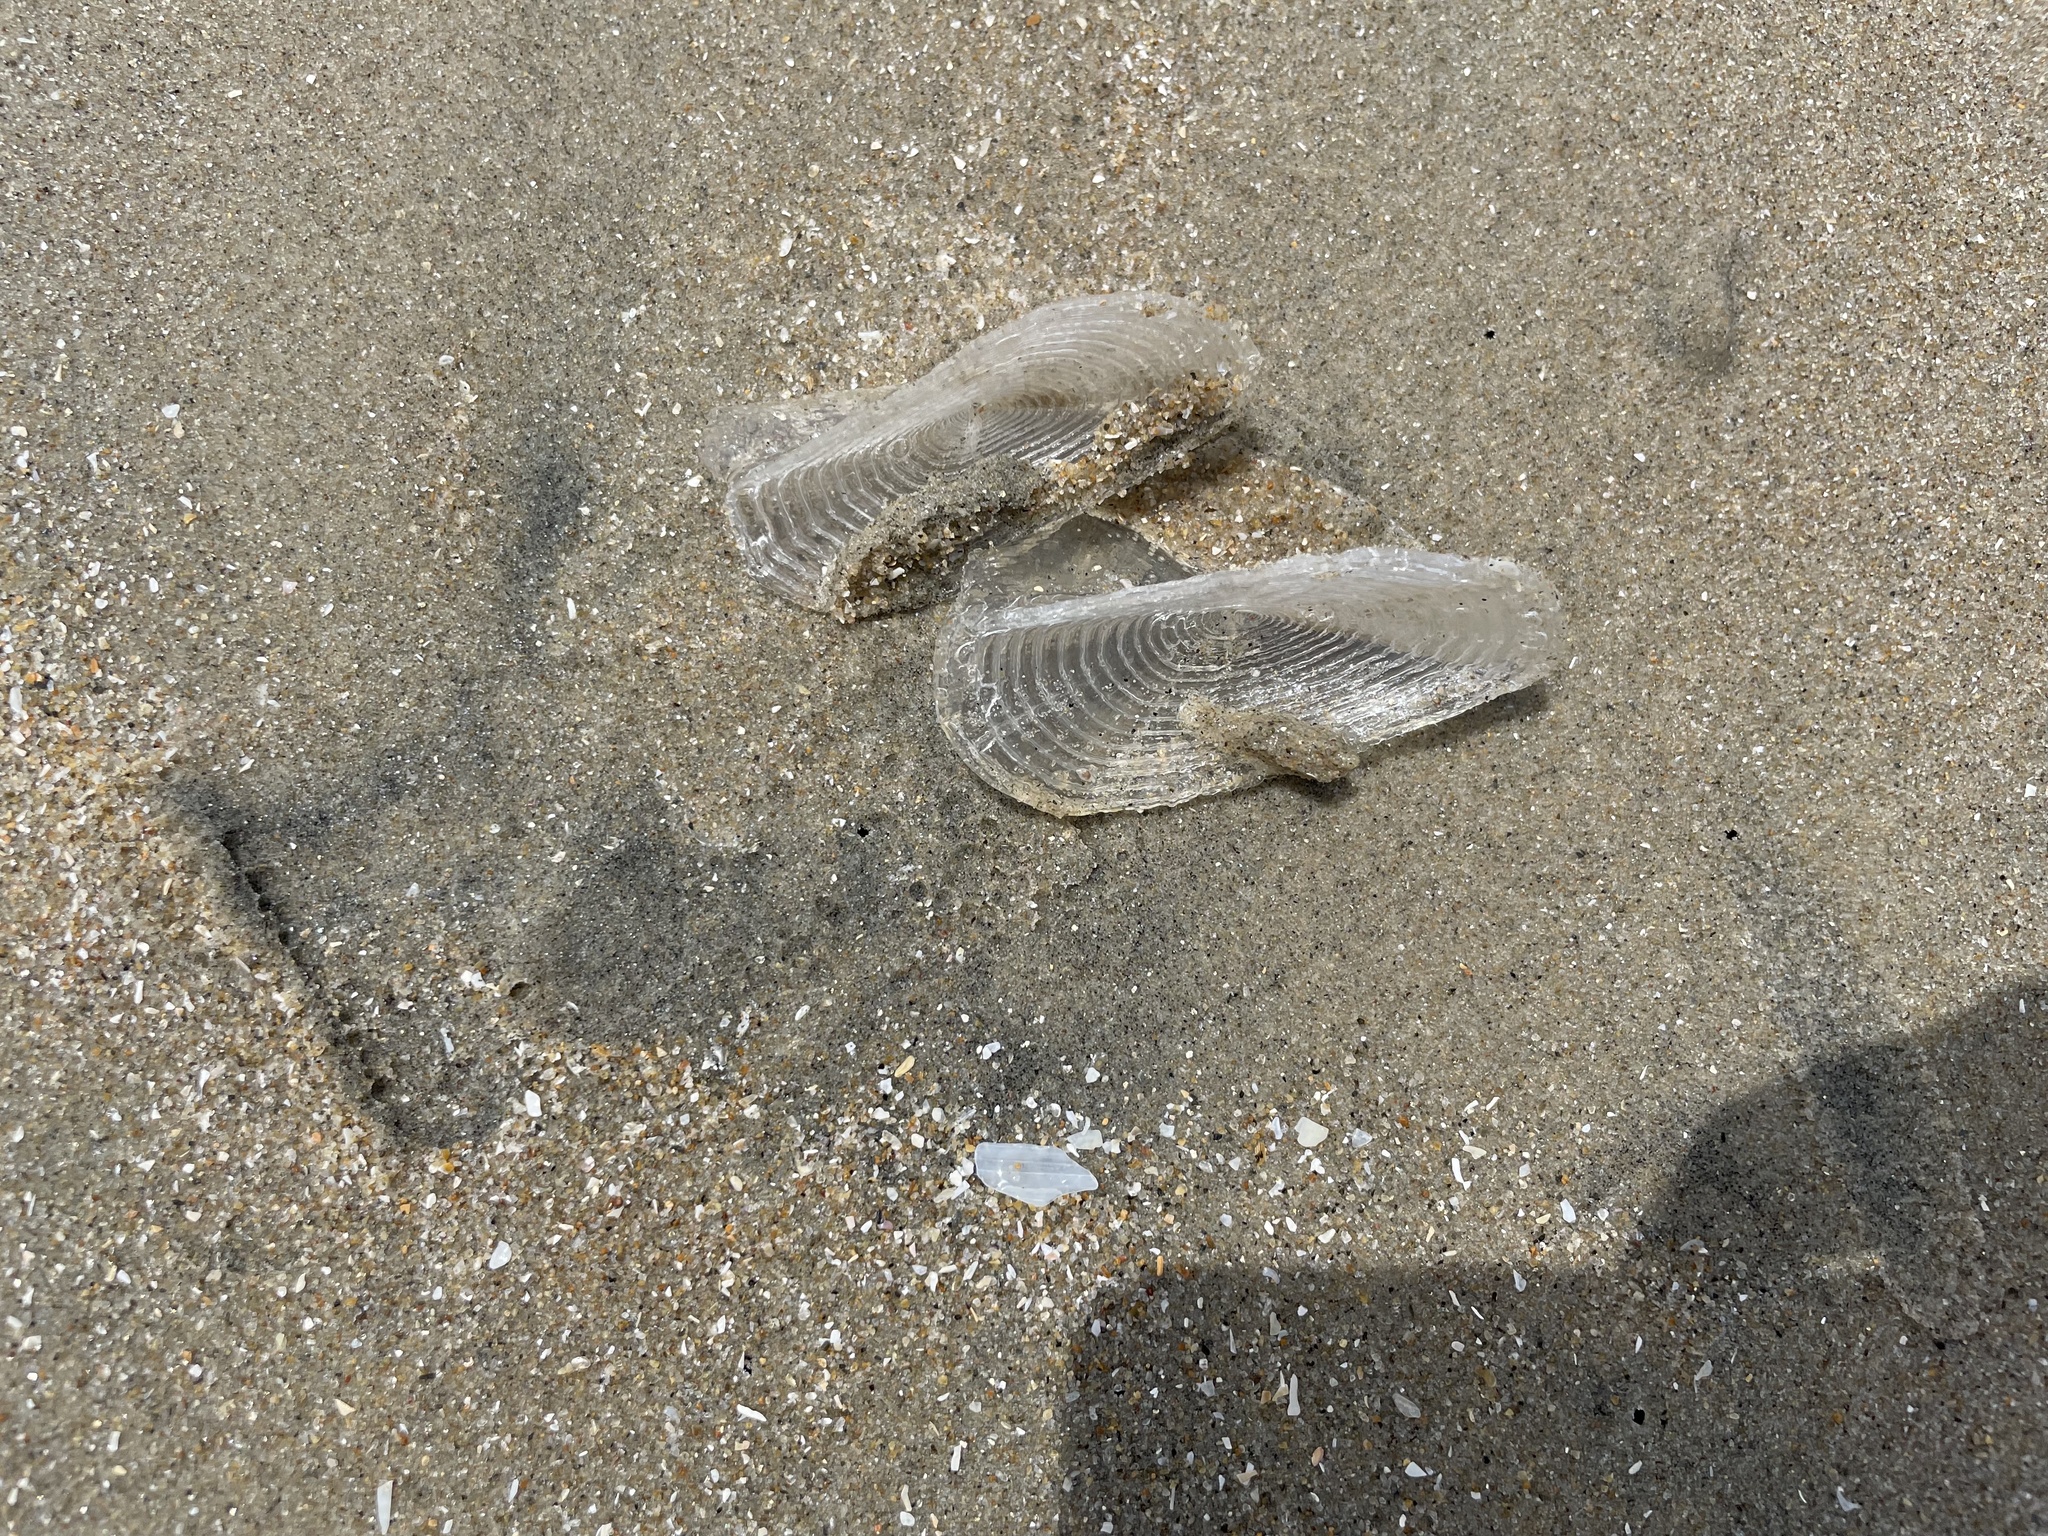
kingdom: Animalia
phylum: Cnidaria
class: Hydrozoa
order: Anthoathecata
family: Porpitidae
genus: Velella
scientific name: Velella velella
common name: By-the-wind-sailor
